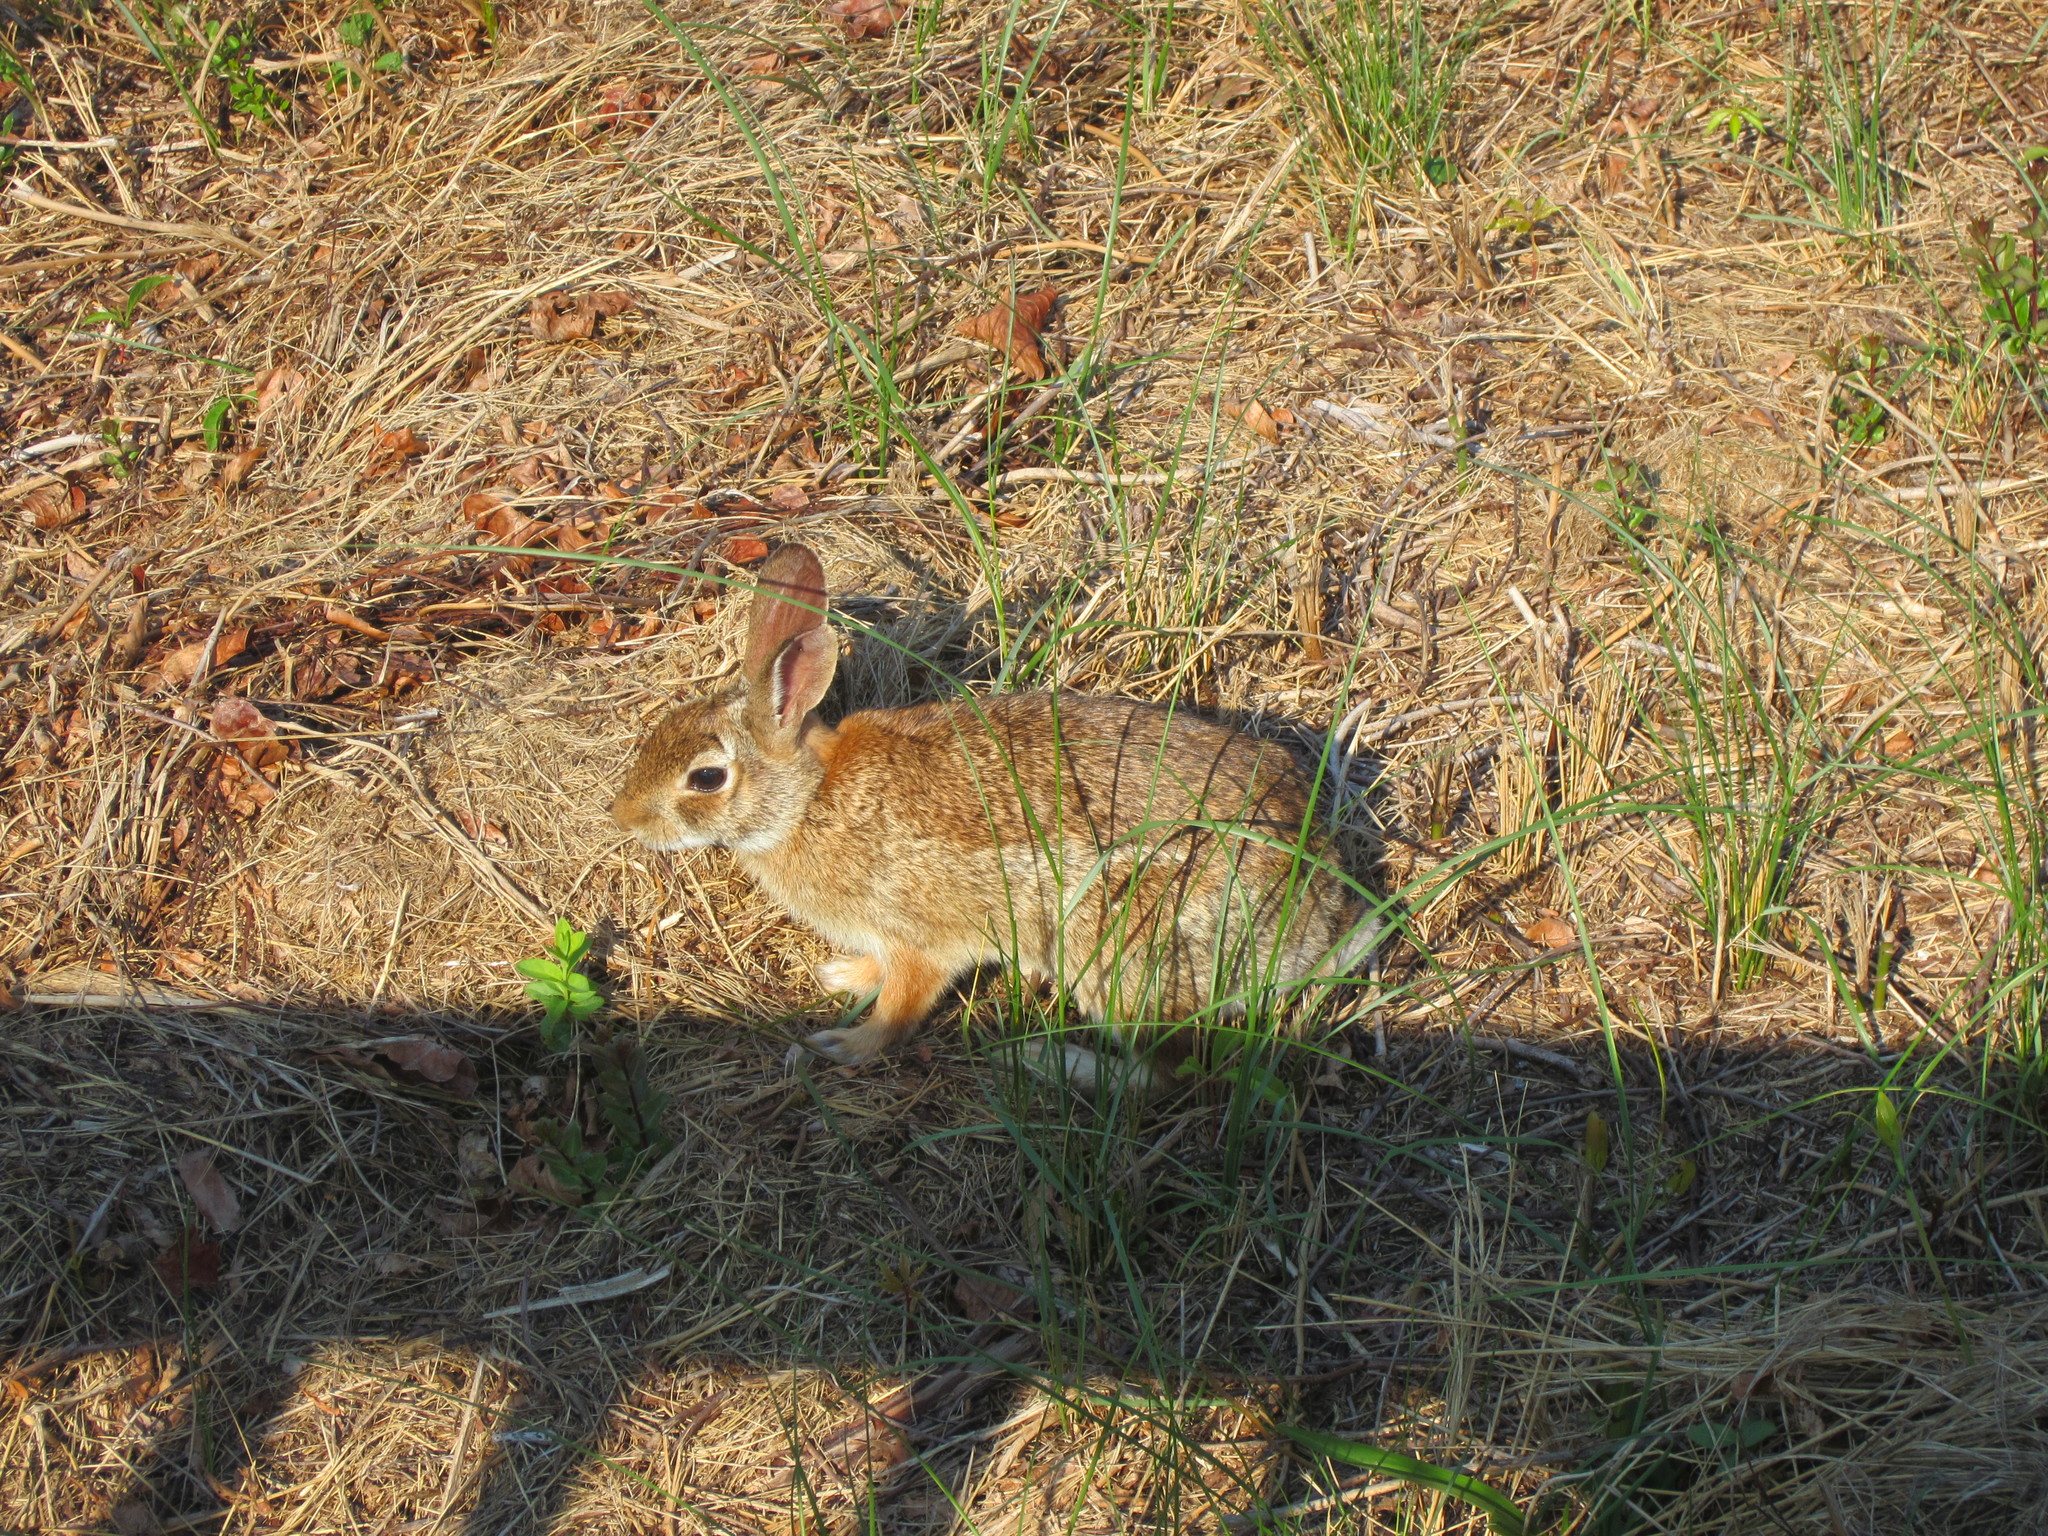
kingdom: Animalia
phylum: Chordata
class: Mammalia
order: Lagomorpha
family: Leporidae
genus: Sylvilagus
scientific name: Sylvilagus floridanus
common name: Eastern cottontail
